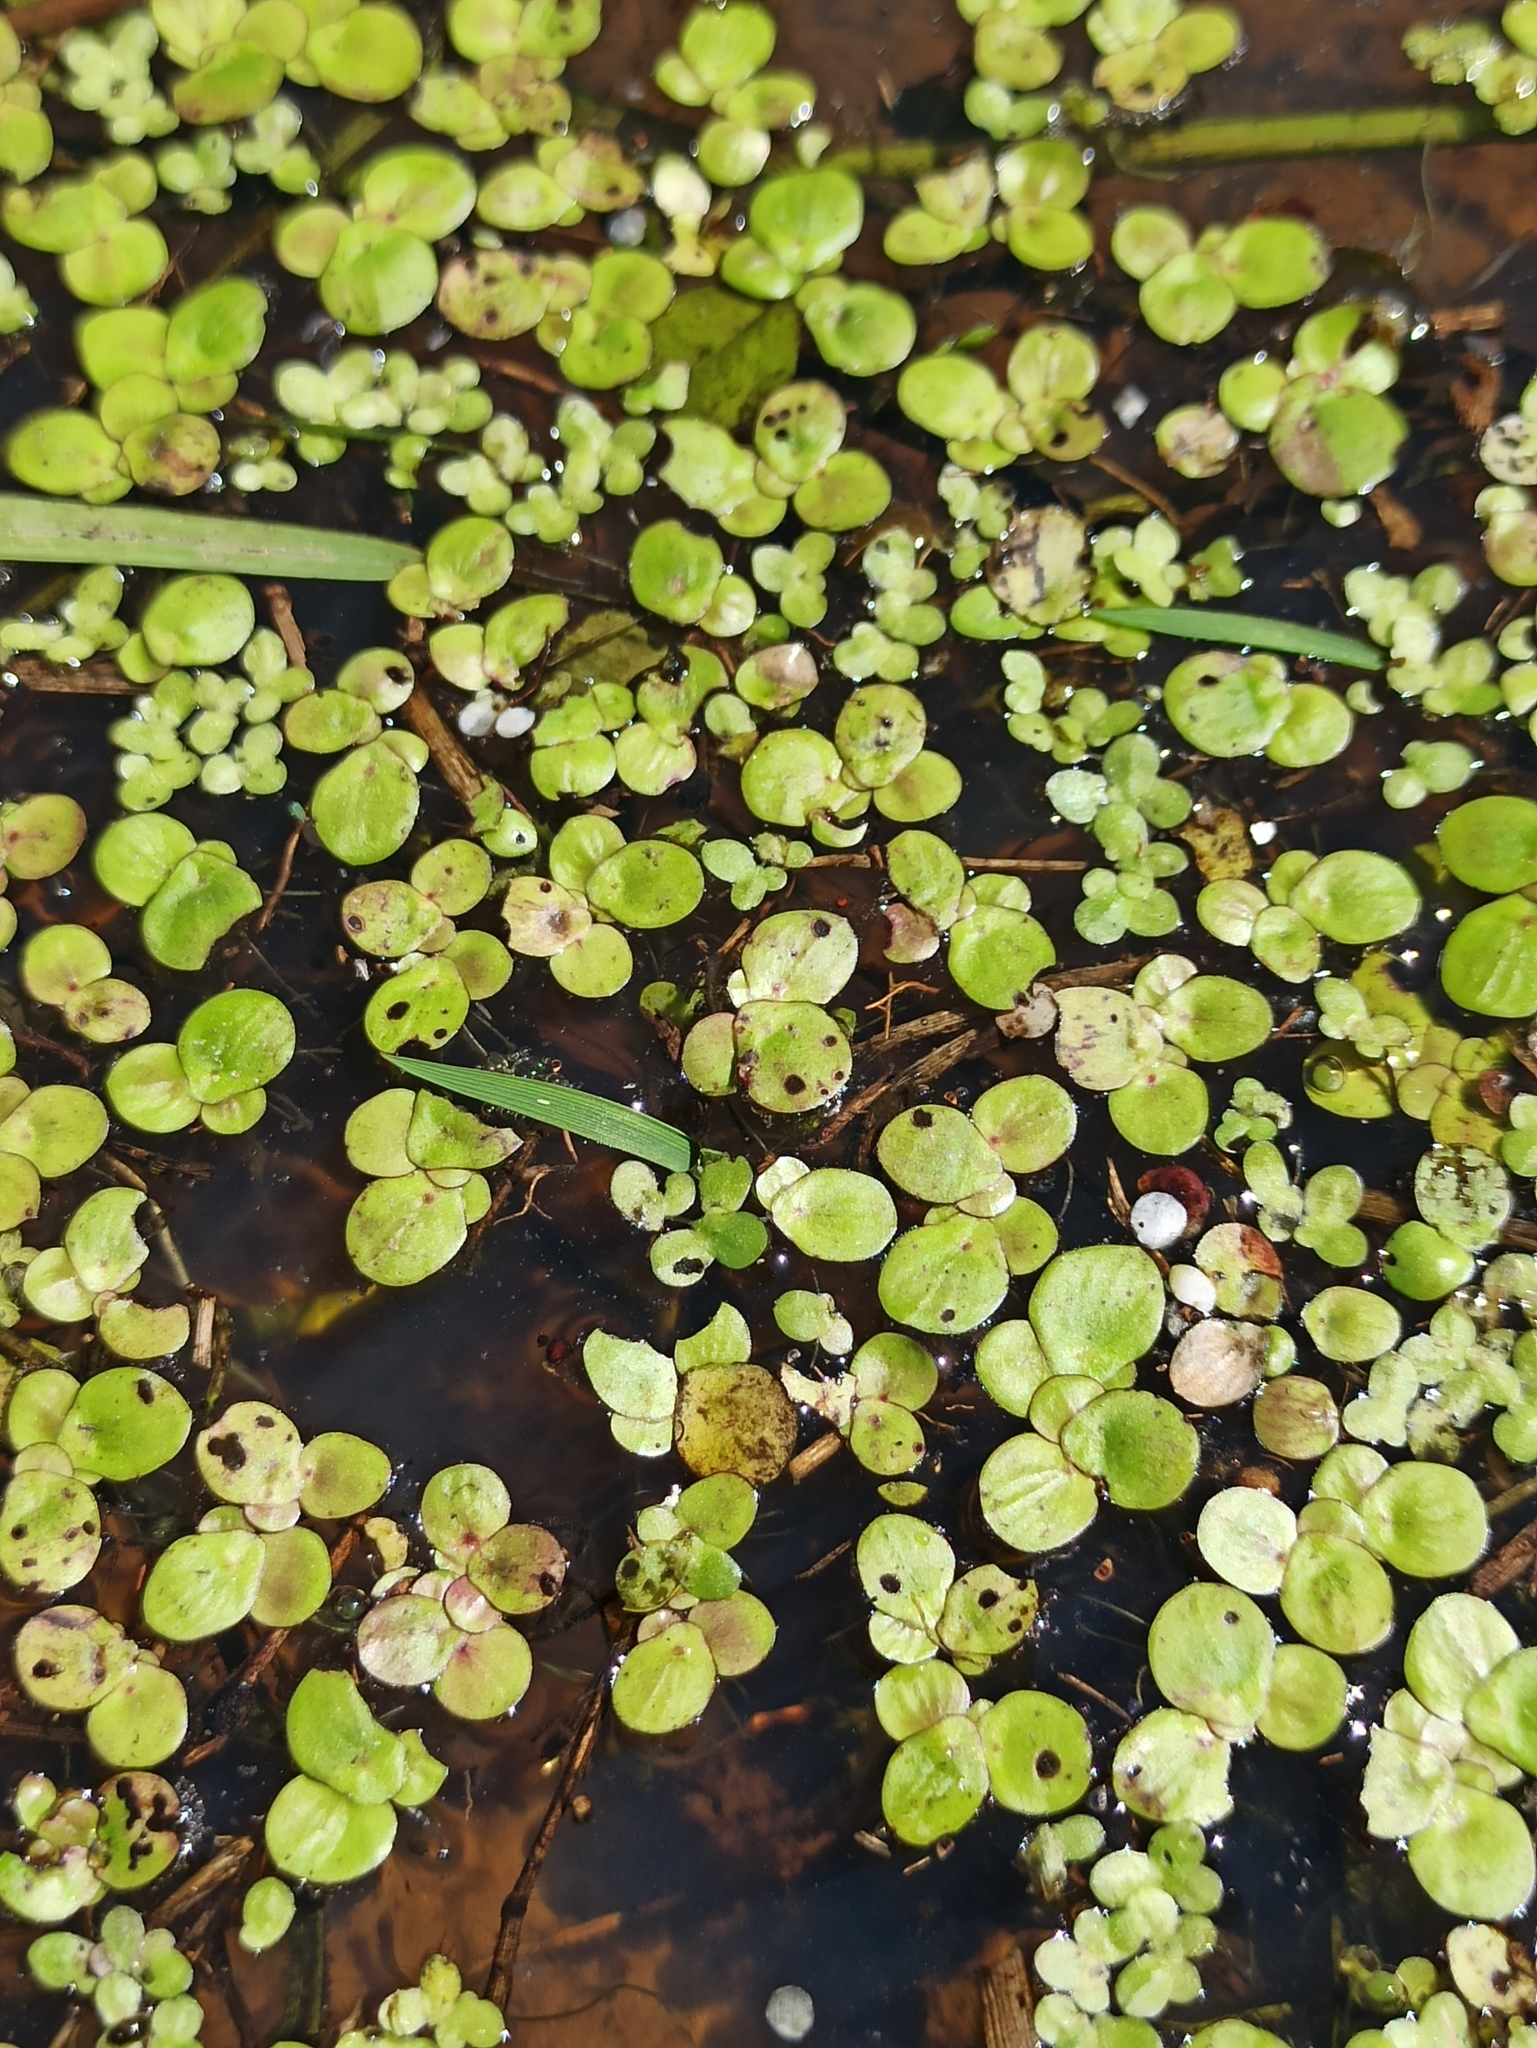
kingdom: Plantae
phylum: Tracheophyta
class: Liliopsida
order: Alismatales
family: Araceae
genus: Spirodela
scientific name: Spirodela polyrhiza
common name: Great duckweed
